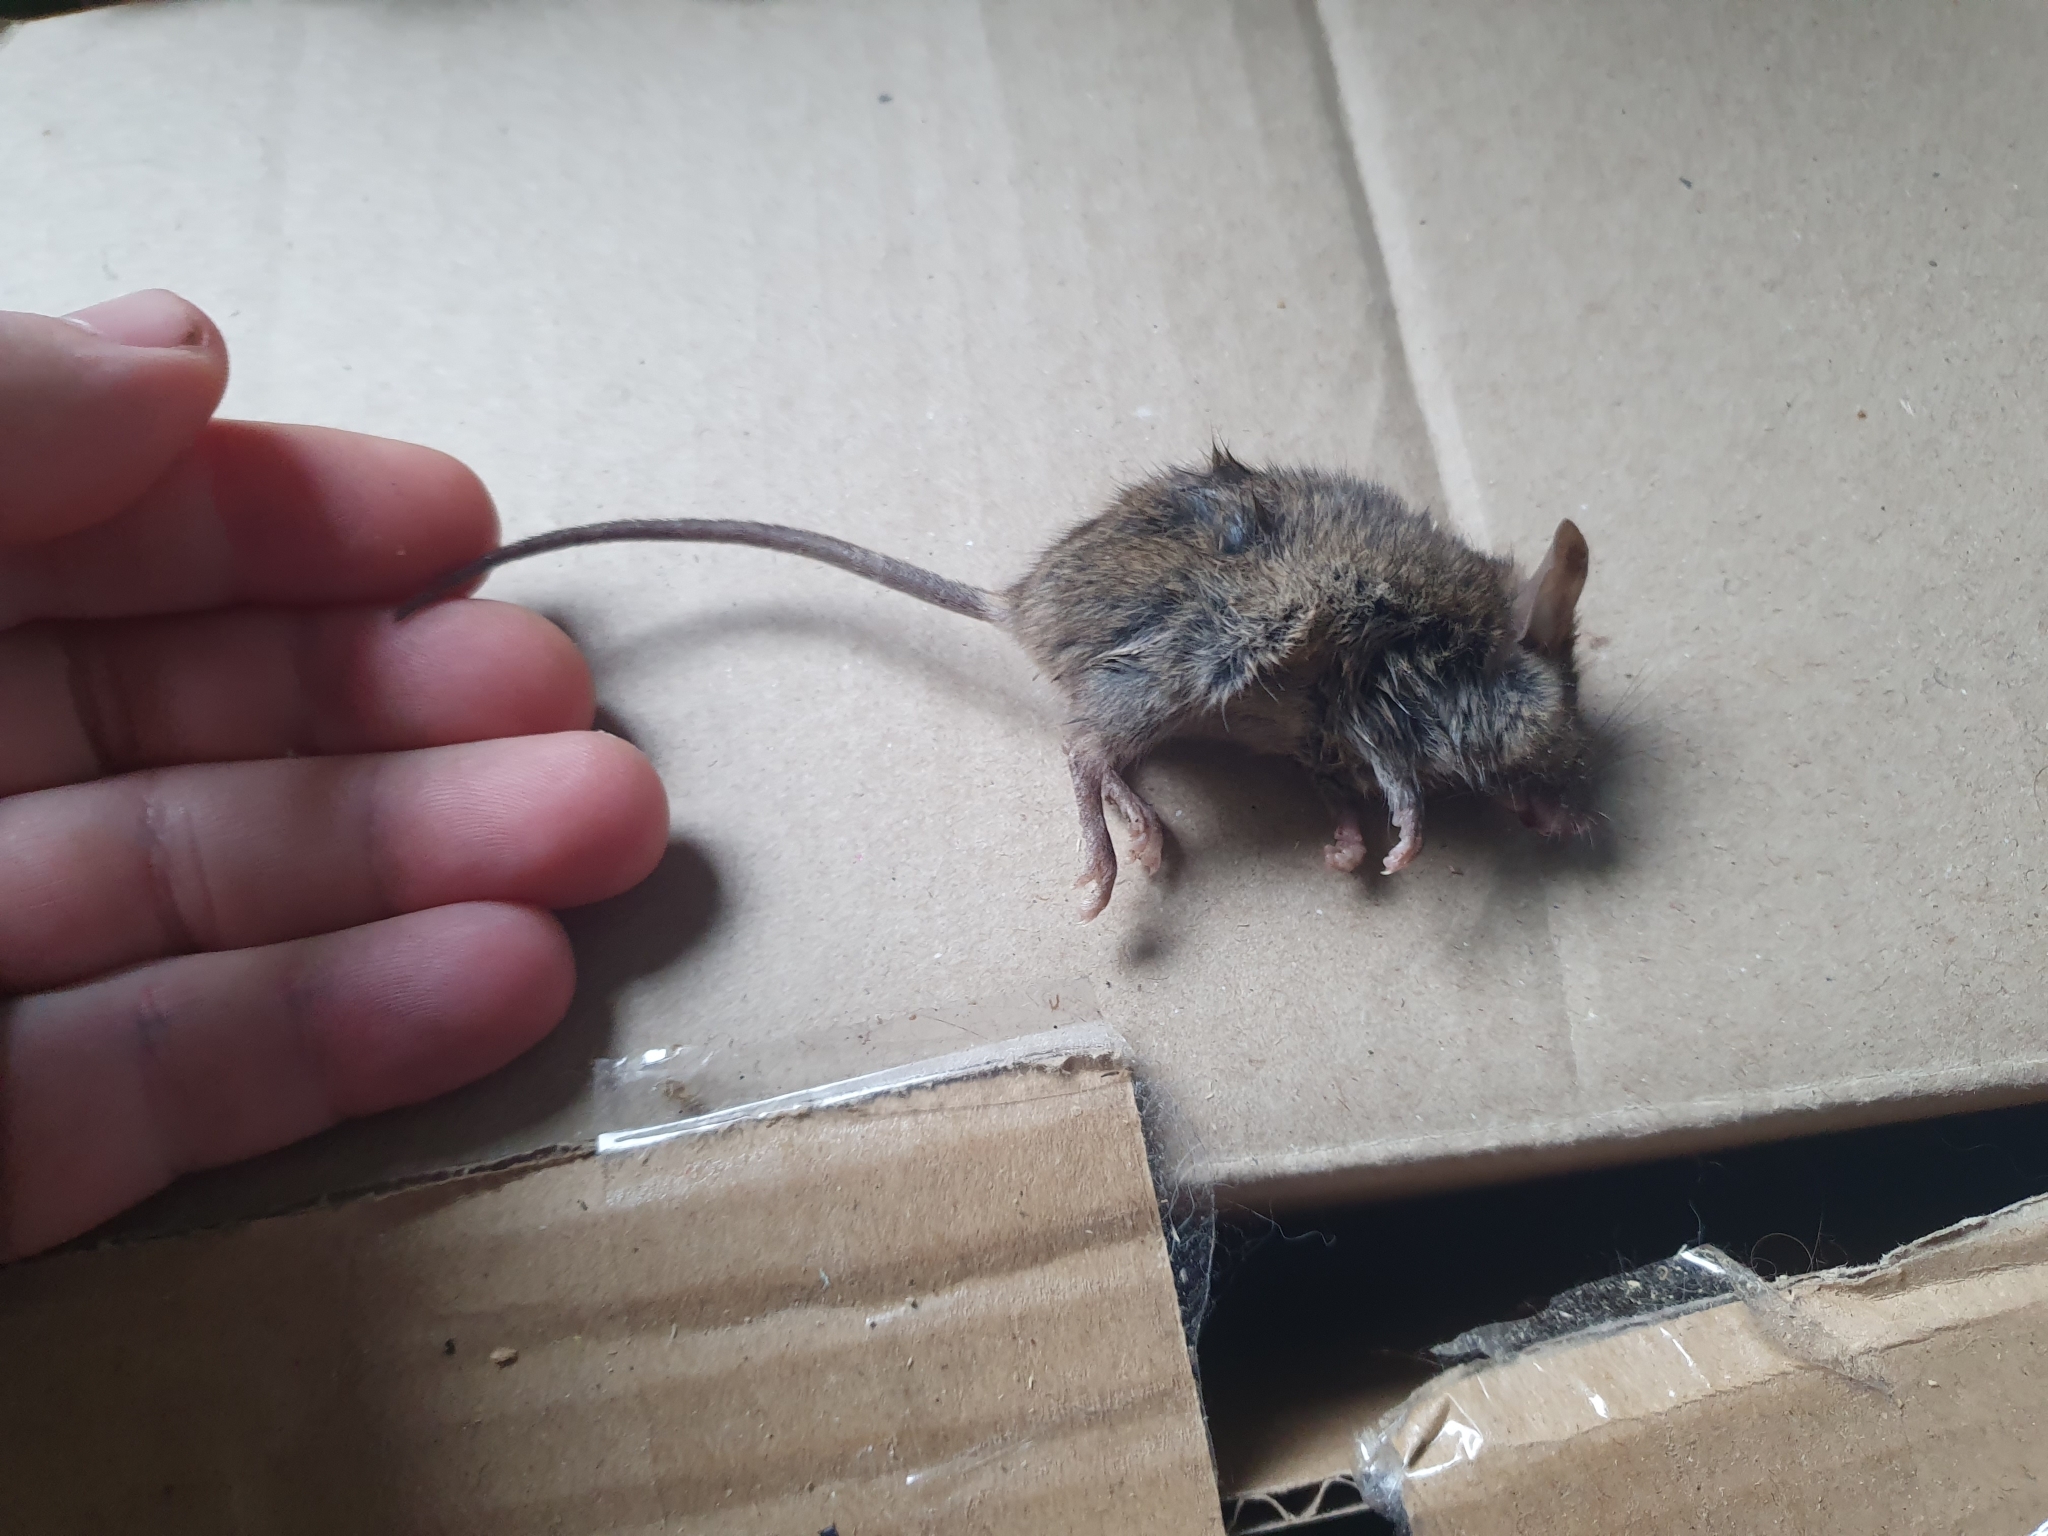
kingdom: Animalia
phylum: Chordata
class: Mammalia
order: Rodentia
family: Muridae
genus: Mus
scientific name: Mus musculus
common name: House mouse
